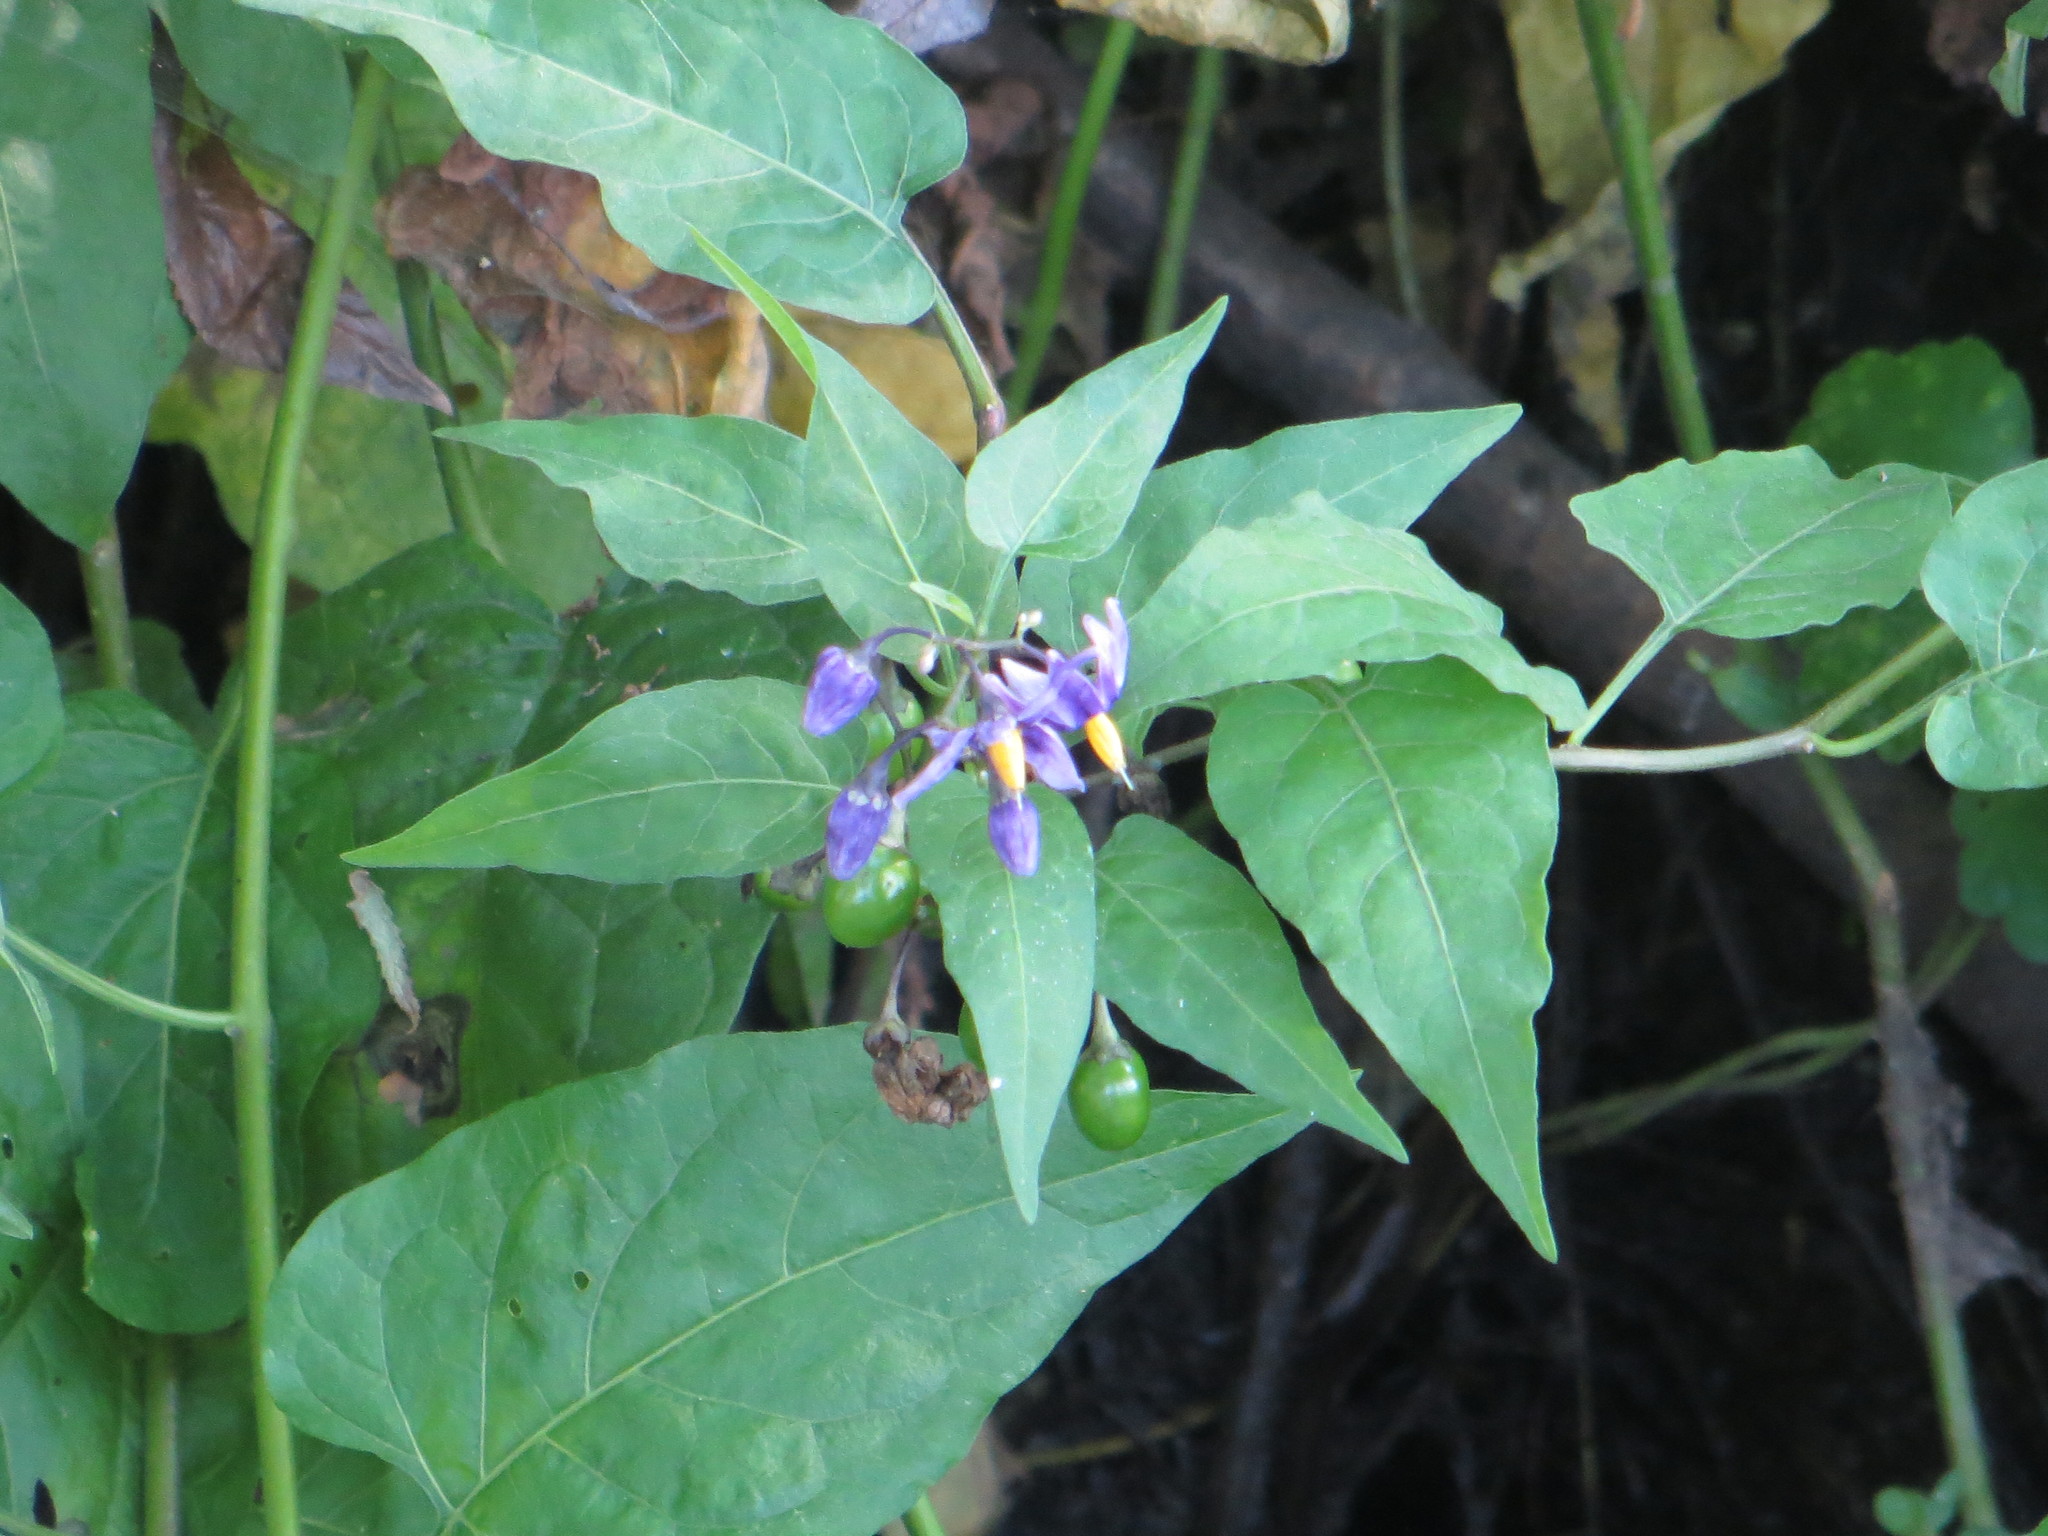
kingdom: Plantae
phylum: Tracheophyta
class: Magnoliopsida
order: Solanales
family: Solanaceae
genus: Solanum
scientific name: Solanum dulcamara
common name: Climbing nightshade
